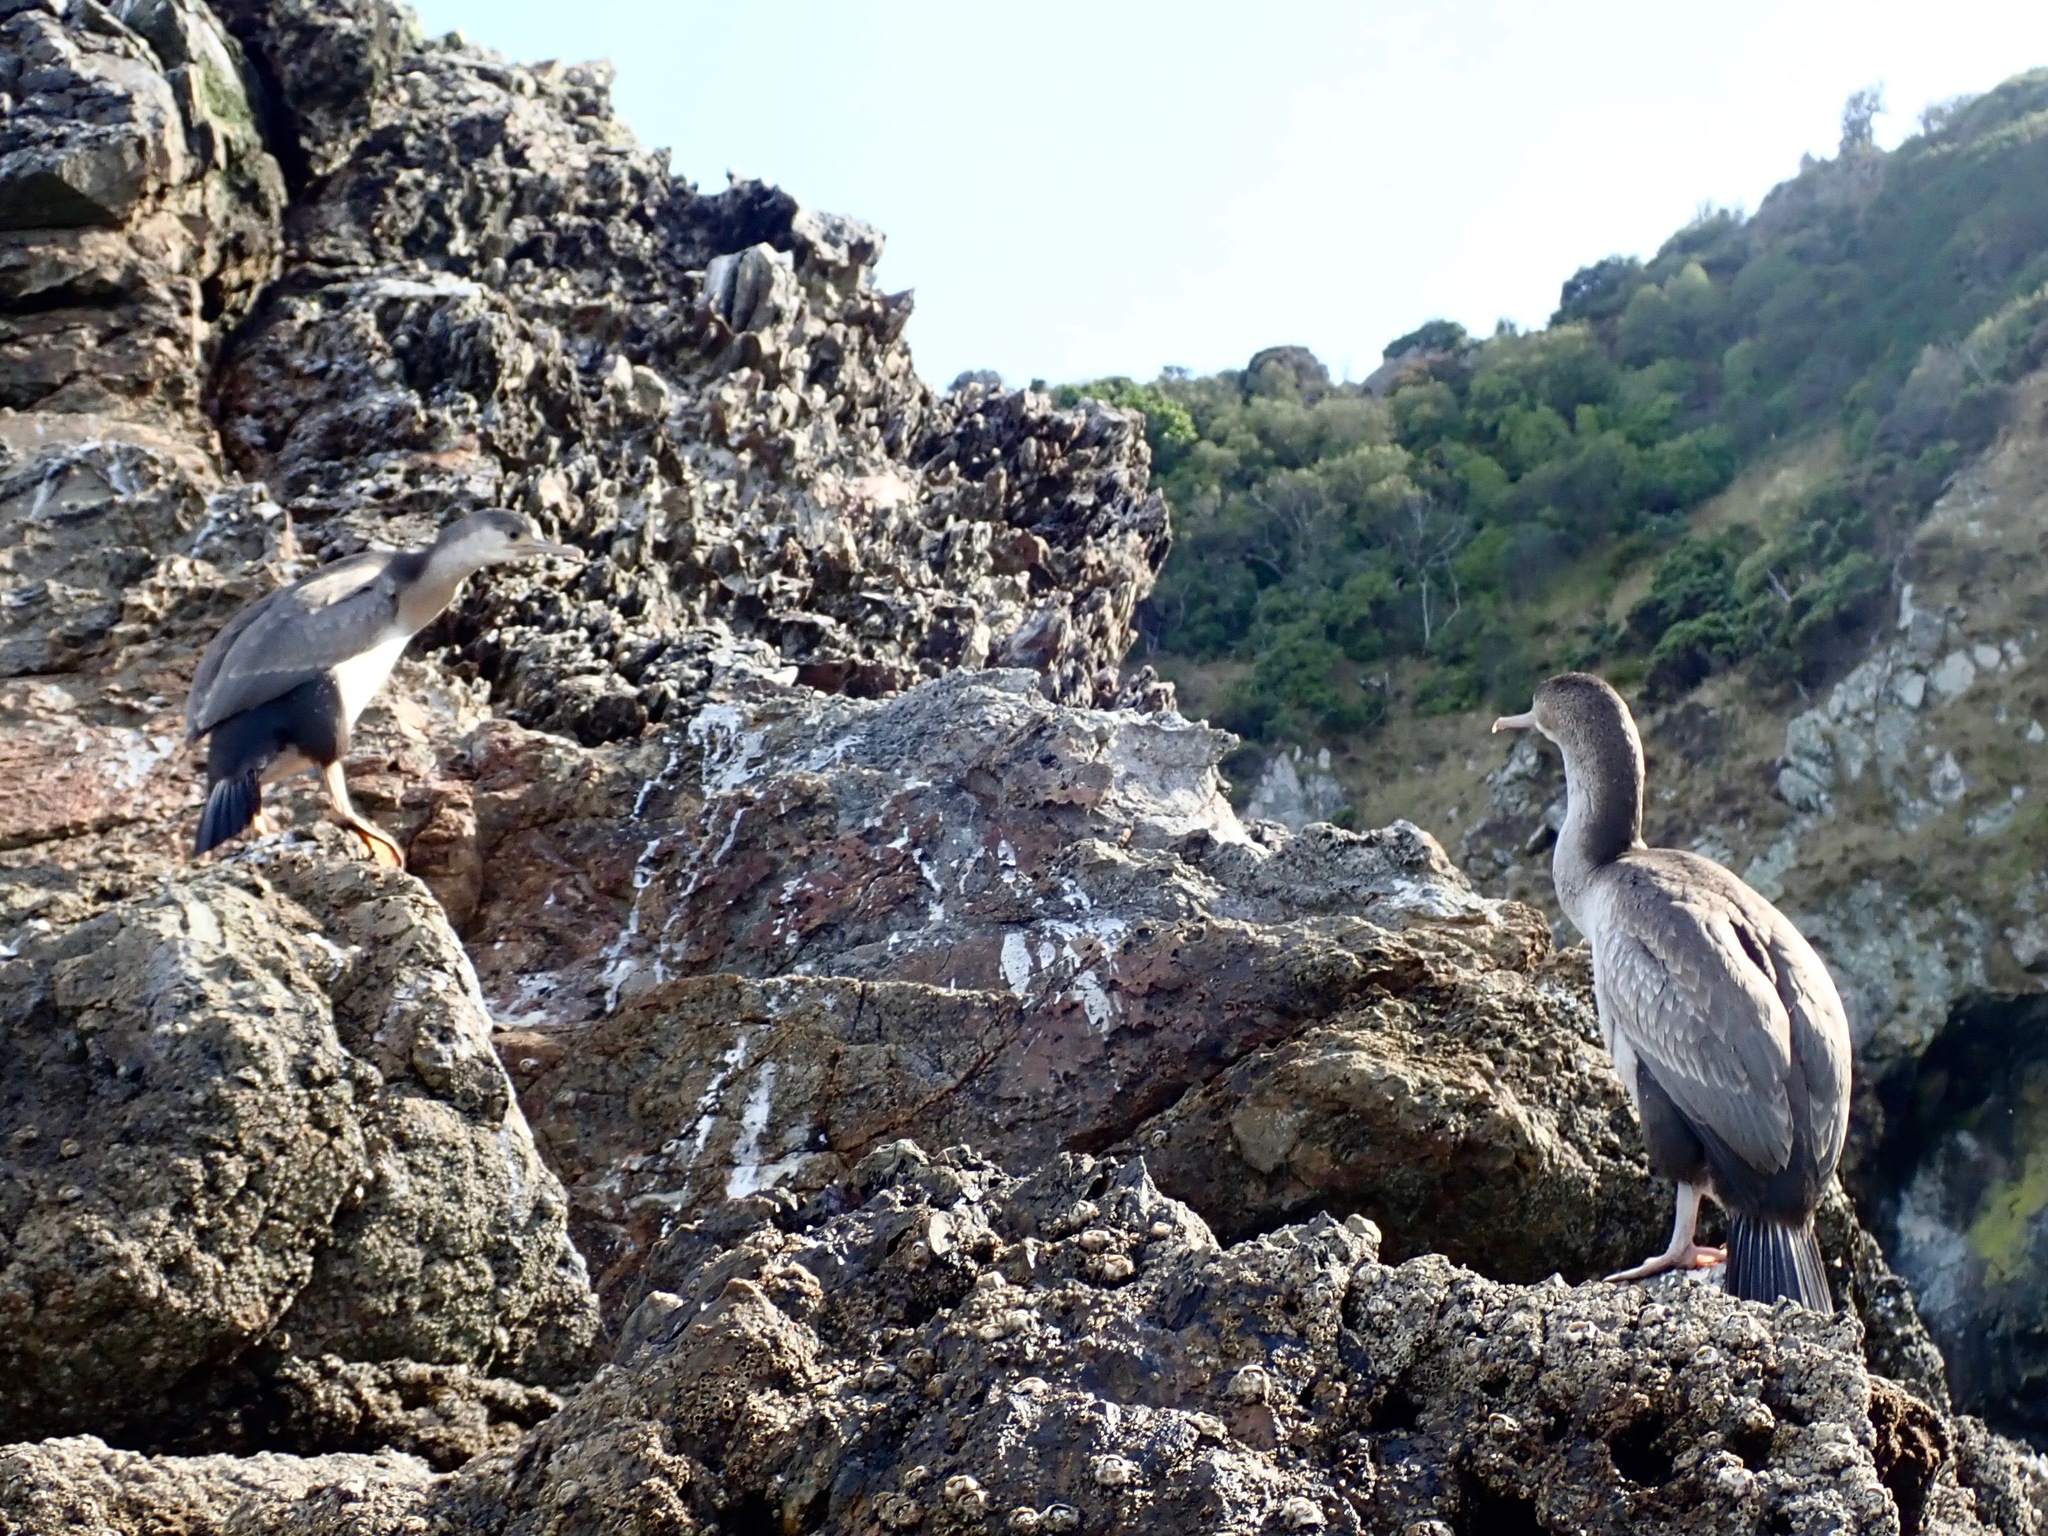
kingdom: Animalia
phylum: Chordata
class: Aves
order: Suliformes
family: Phalacrocoracidae
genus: Phalacrocorax
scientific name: Phalacrocorax punctatus
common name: Spotted shag
